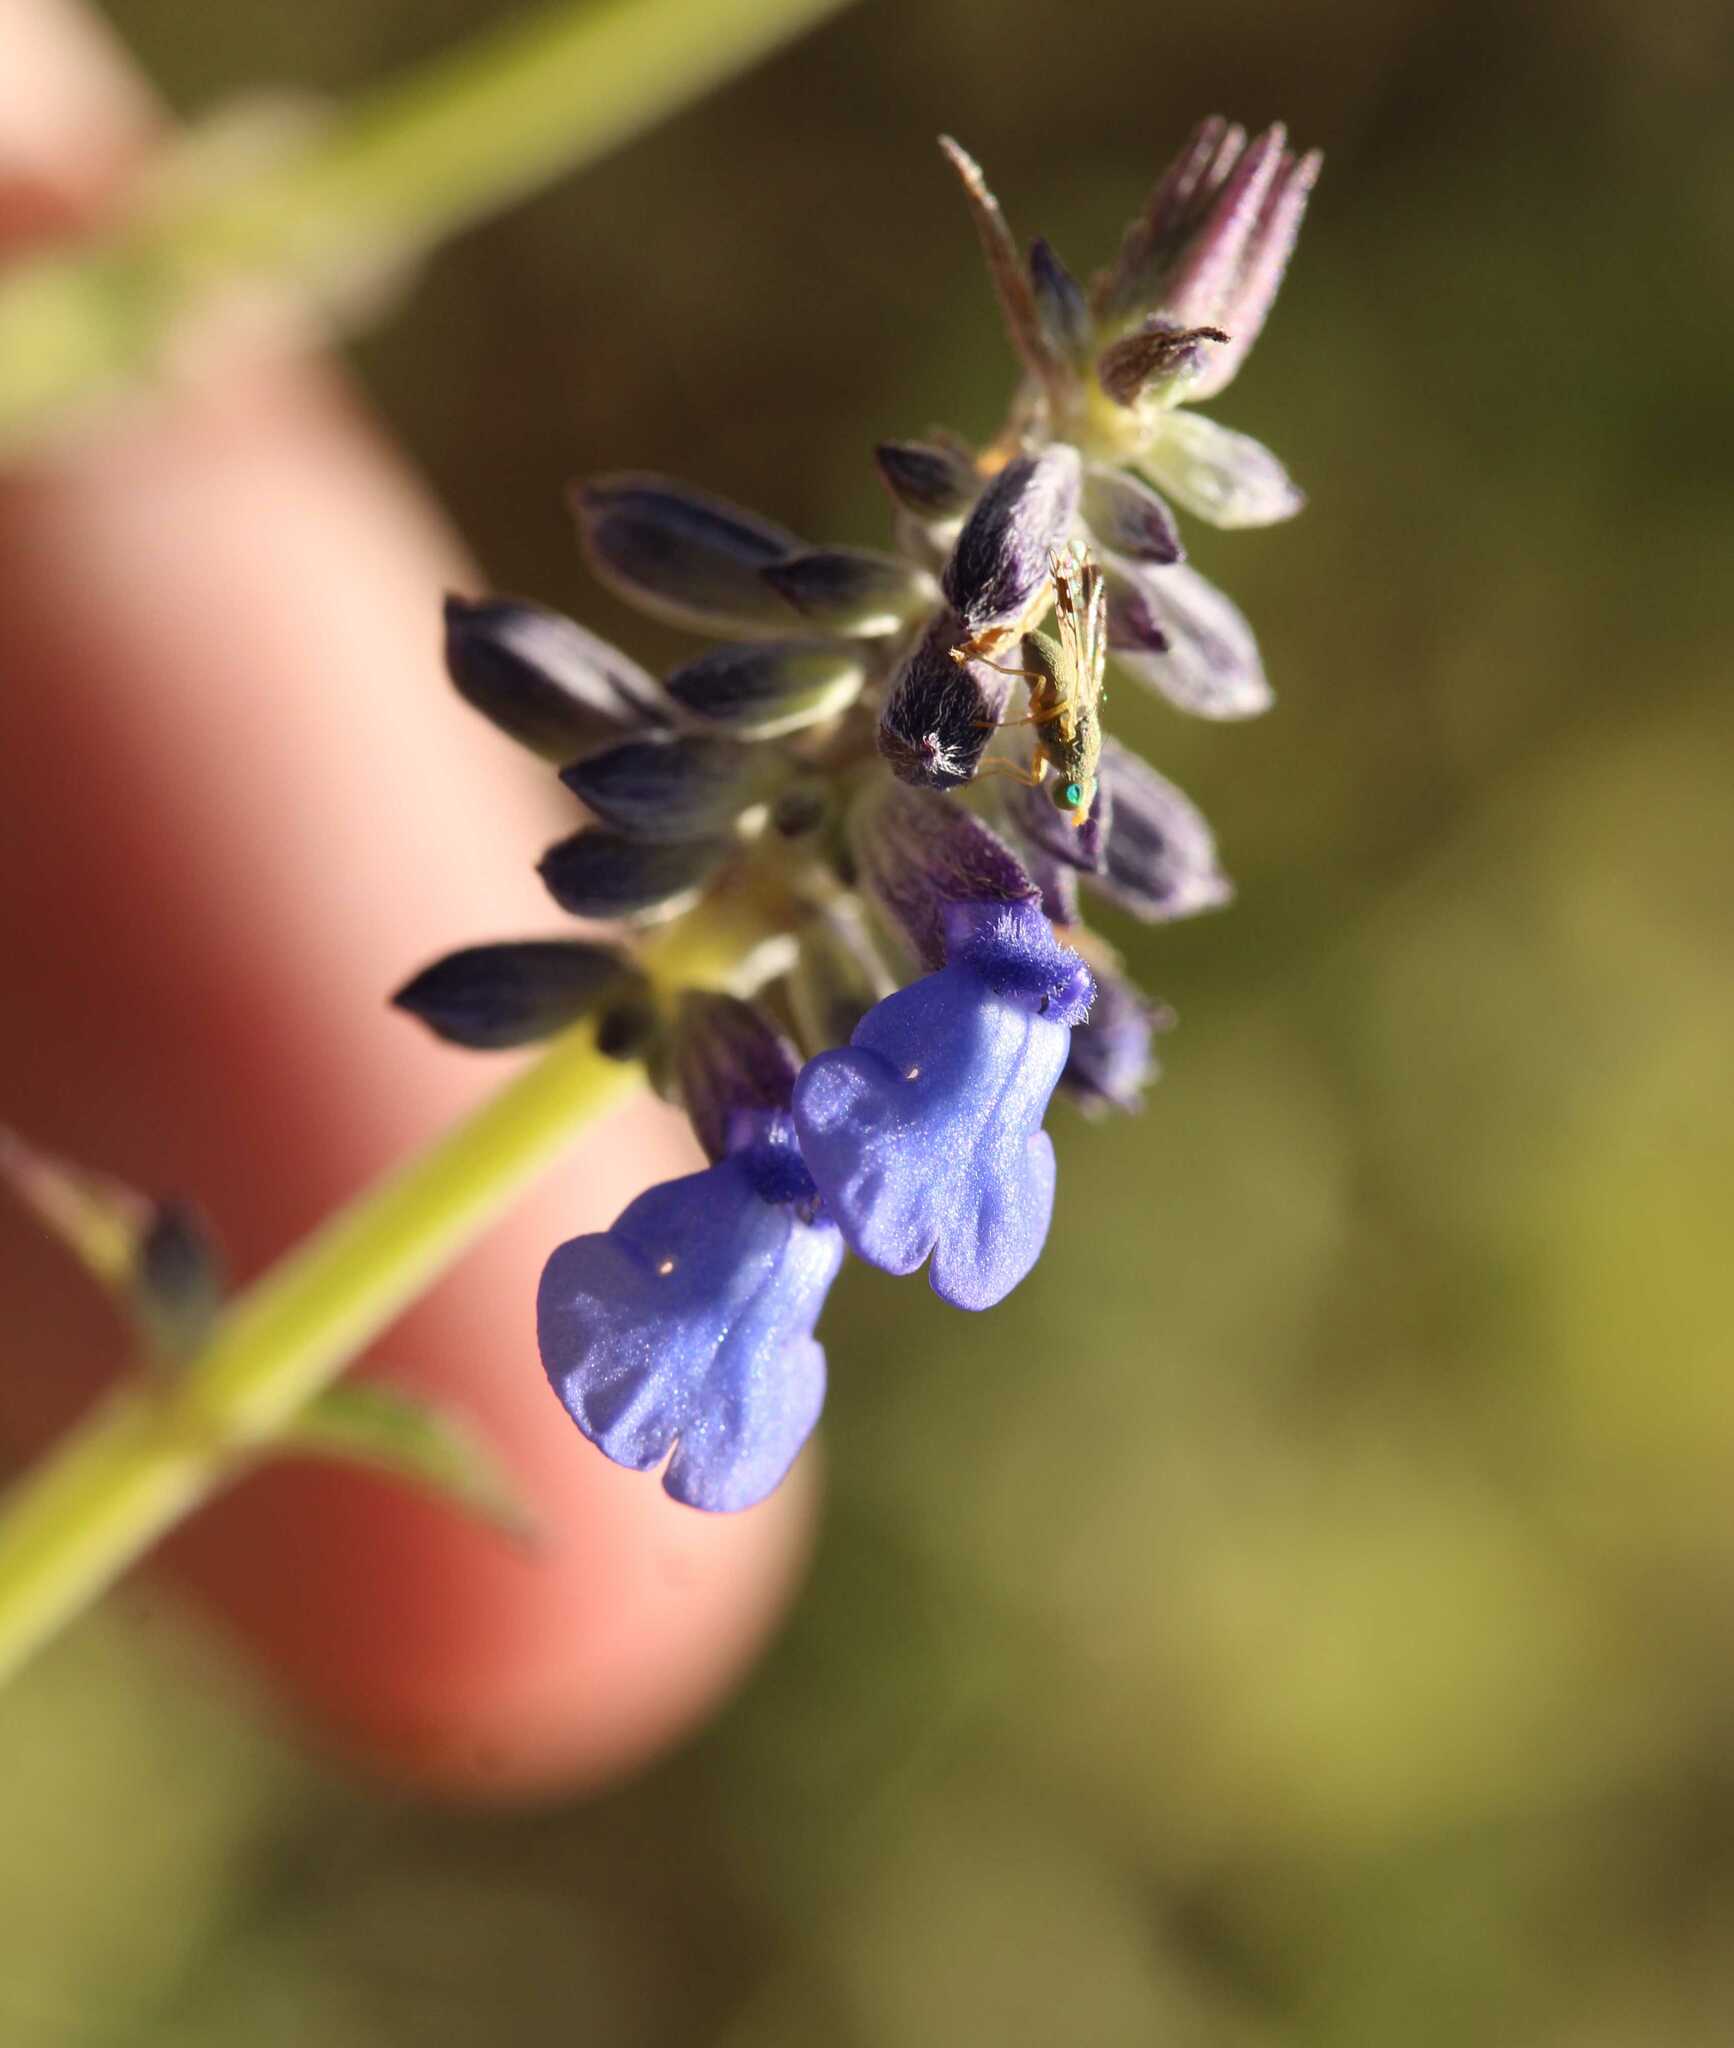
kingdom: Plantae
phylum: Tracheophyta
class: Magnoliopsida
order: Lamiales
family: Lamiaceae
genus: Salvia
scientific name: Salvia lavanduloides
